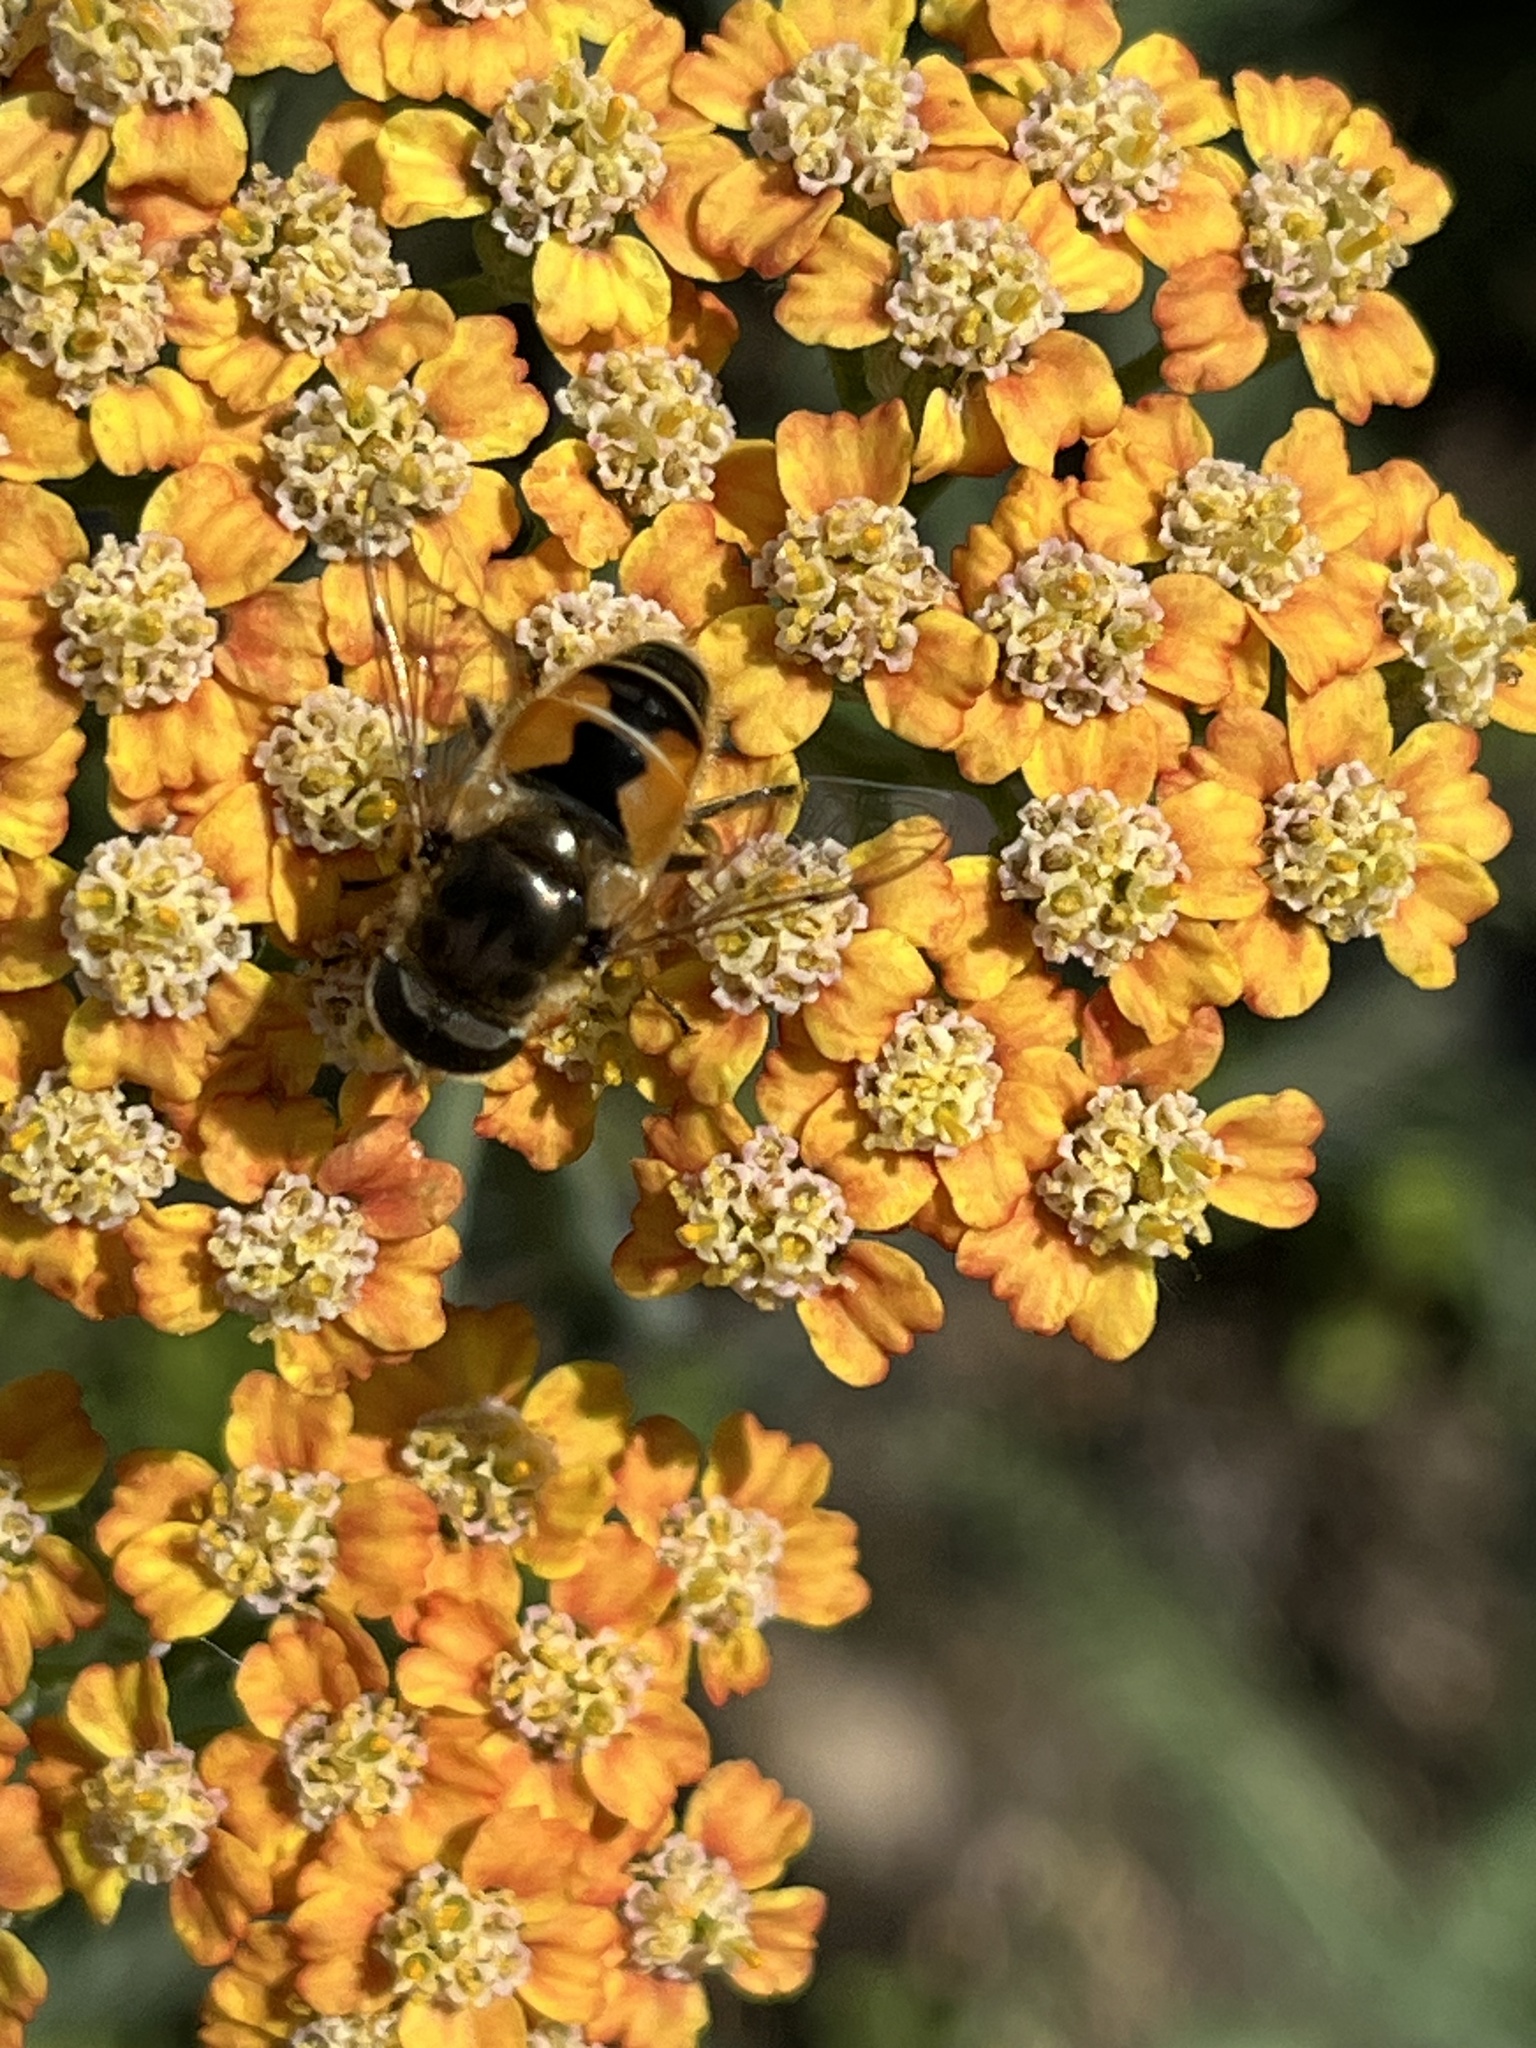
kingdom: Animalia
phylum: Arthropoda
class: Insecta
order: Diptera
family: Syrphidae
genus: Eoseristalis
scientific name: Eoseristalis
